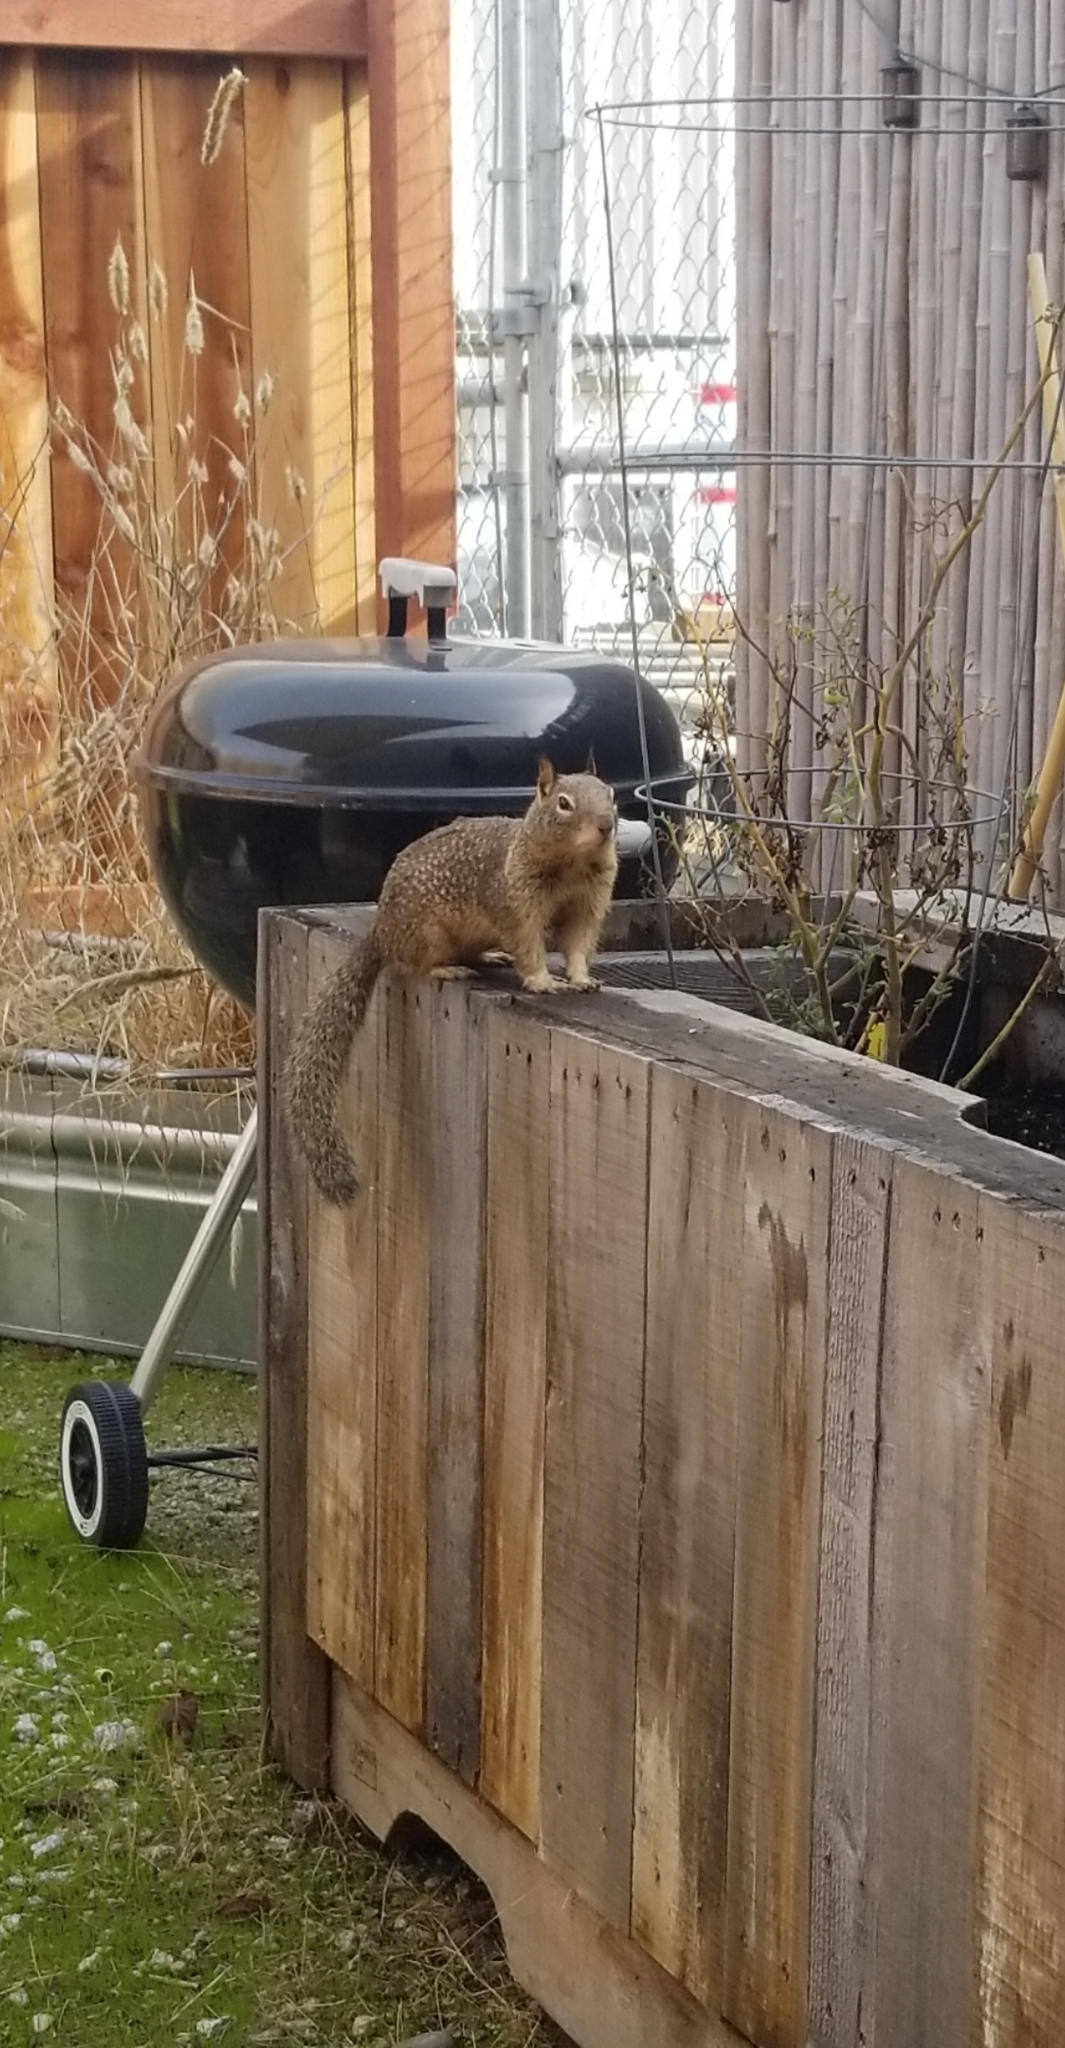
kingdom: Animalia
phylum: Chordata
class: Mammalia
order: Rodentia
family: Sciuridae
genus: Otospermophilus
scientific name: Otospermophilus beecheyi
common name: California ground squirrel
